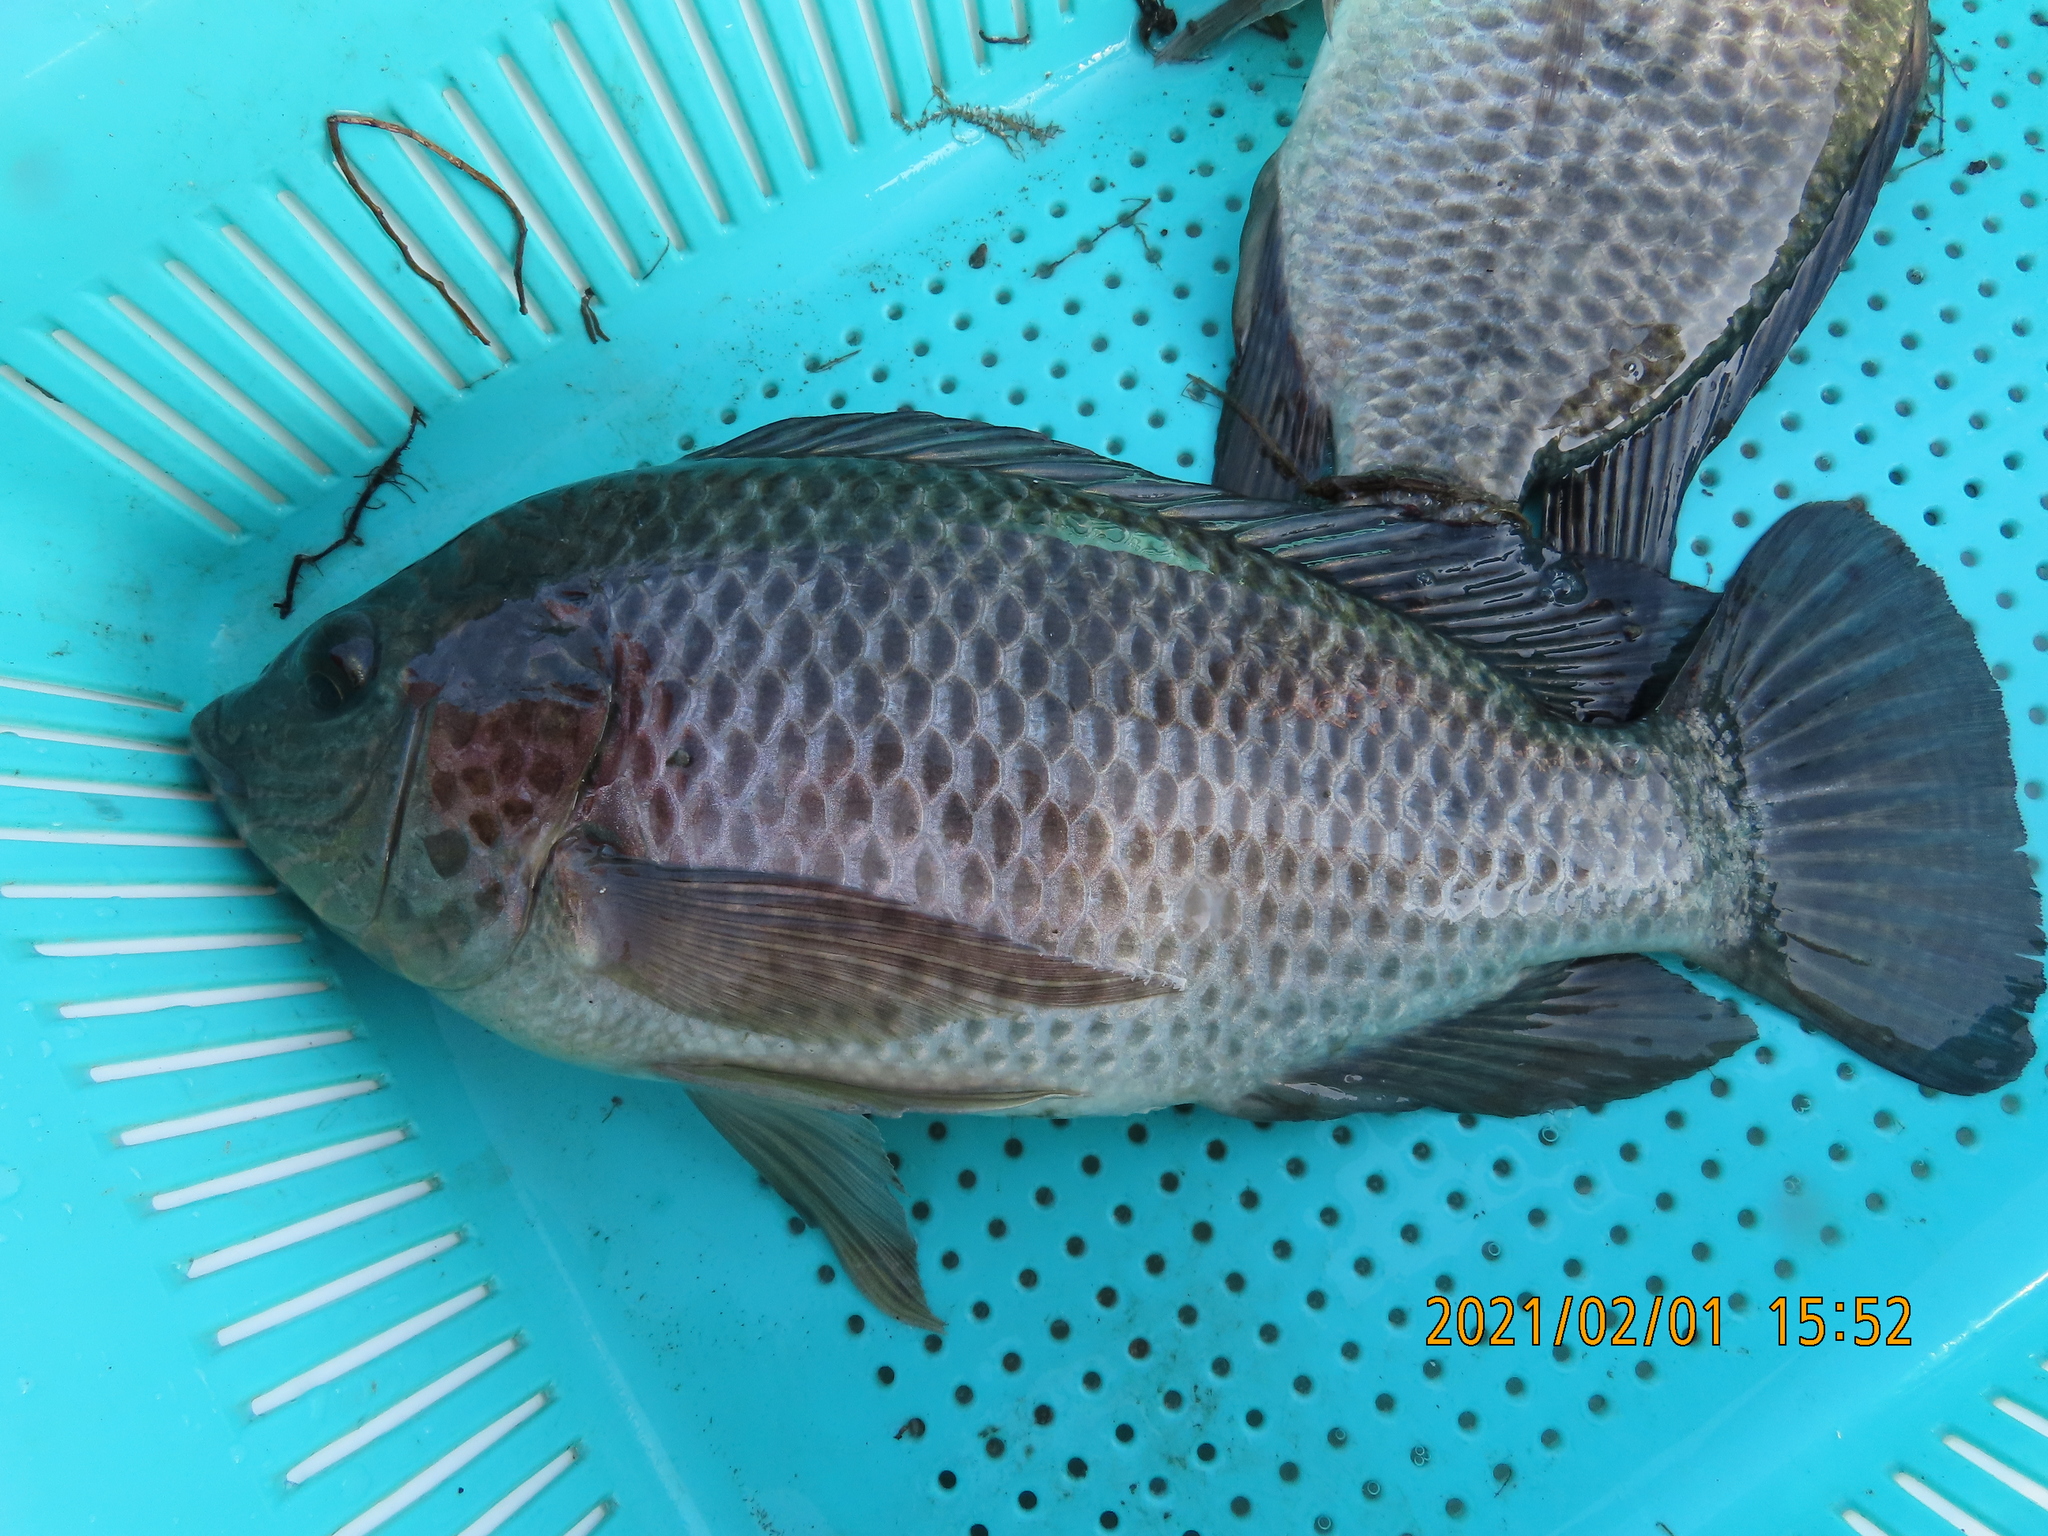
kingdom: Animalia
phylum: Chordata
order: Perciformes
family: Cichlidae
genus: Oreochromis
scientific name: Oreochromis mossambicus
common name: Mozambique tilapia
